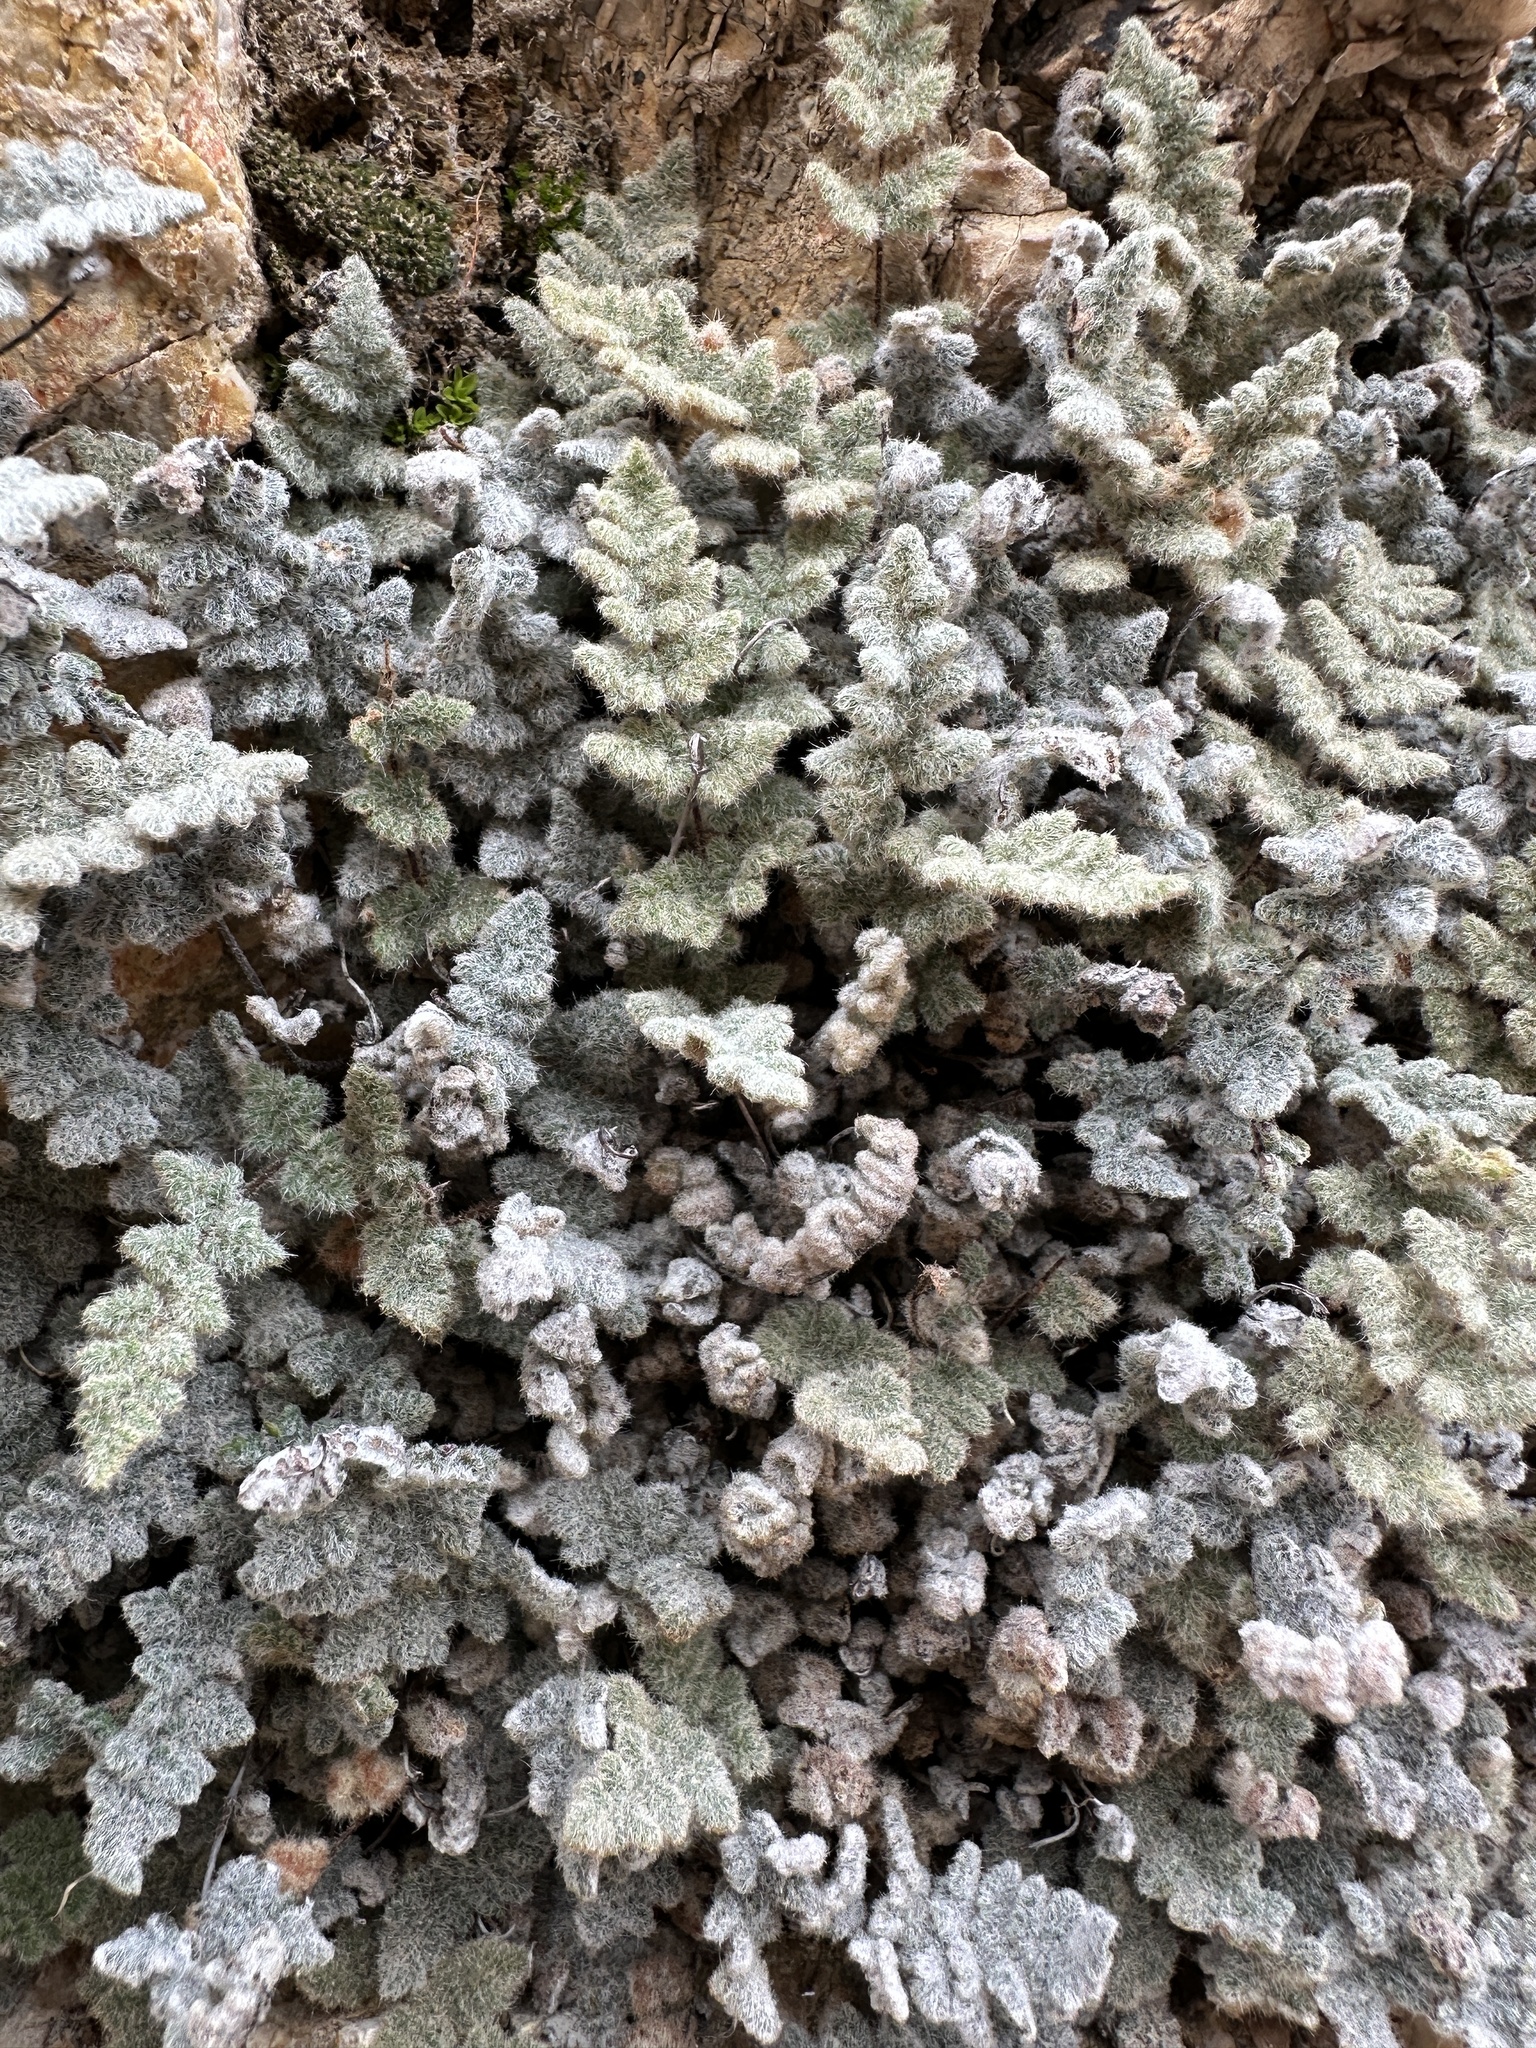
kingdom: Plantae
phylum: Tracheophyta
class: Polypodiopsida
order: Polypodiales
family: Pteridaceae
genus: Myriopteris
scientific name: Myriopteris parryi
